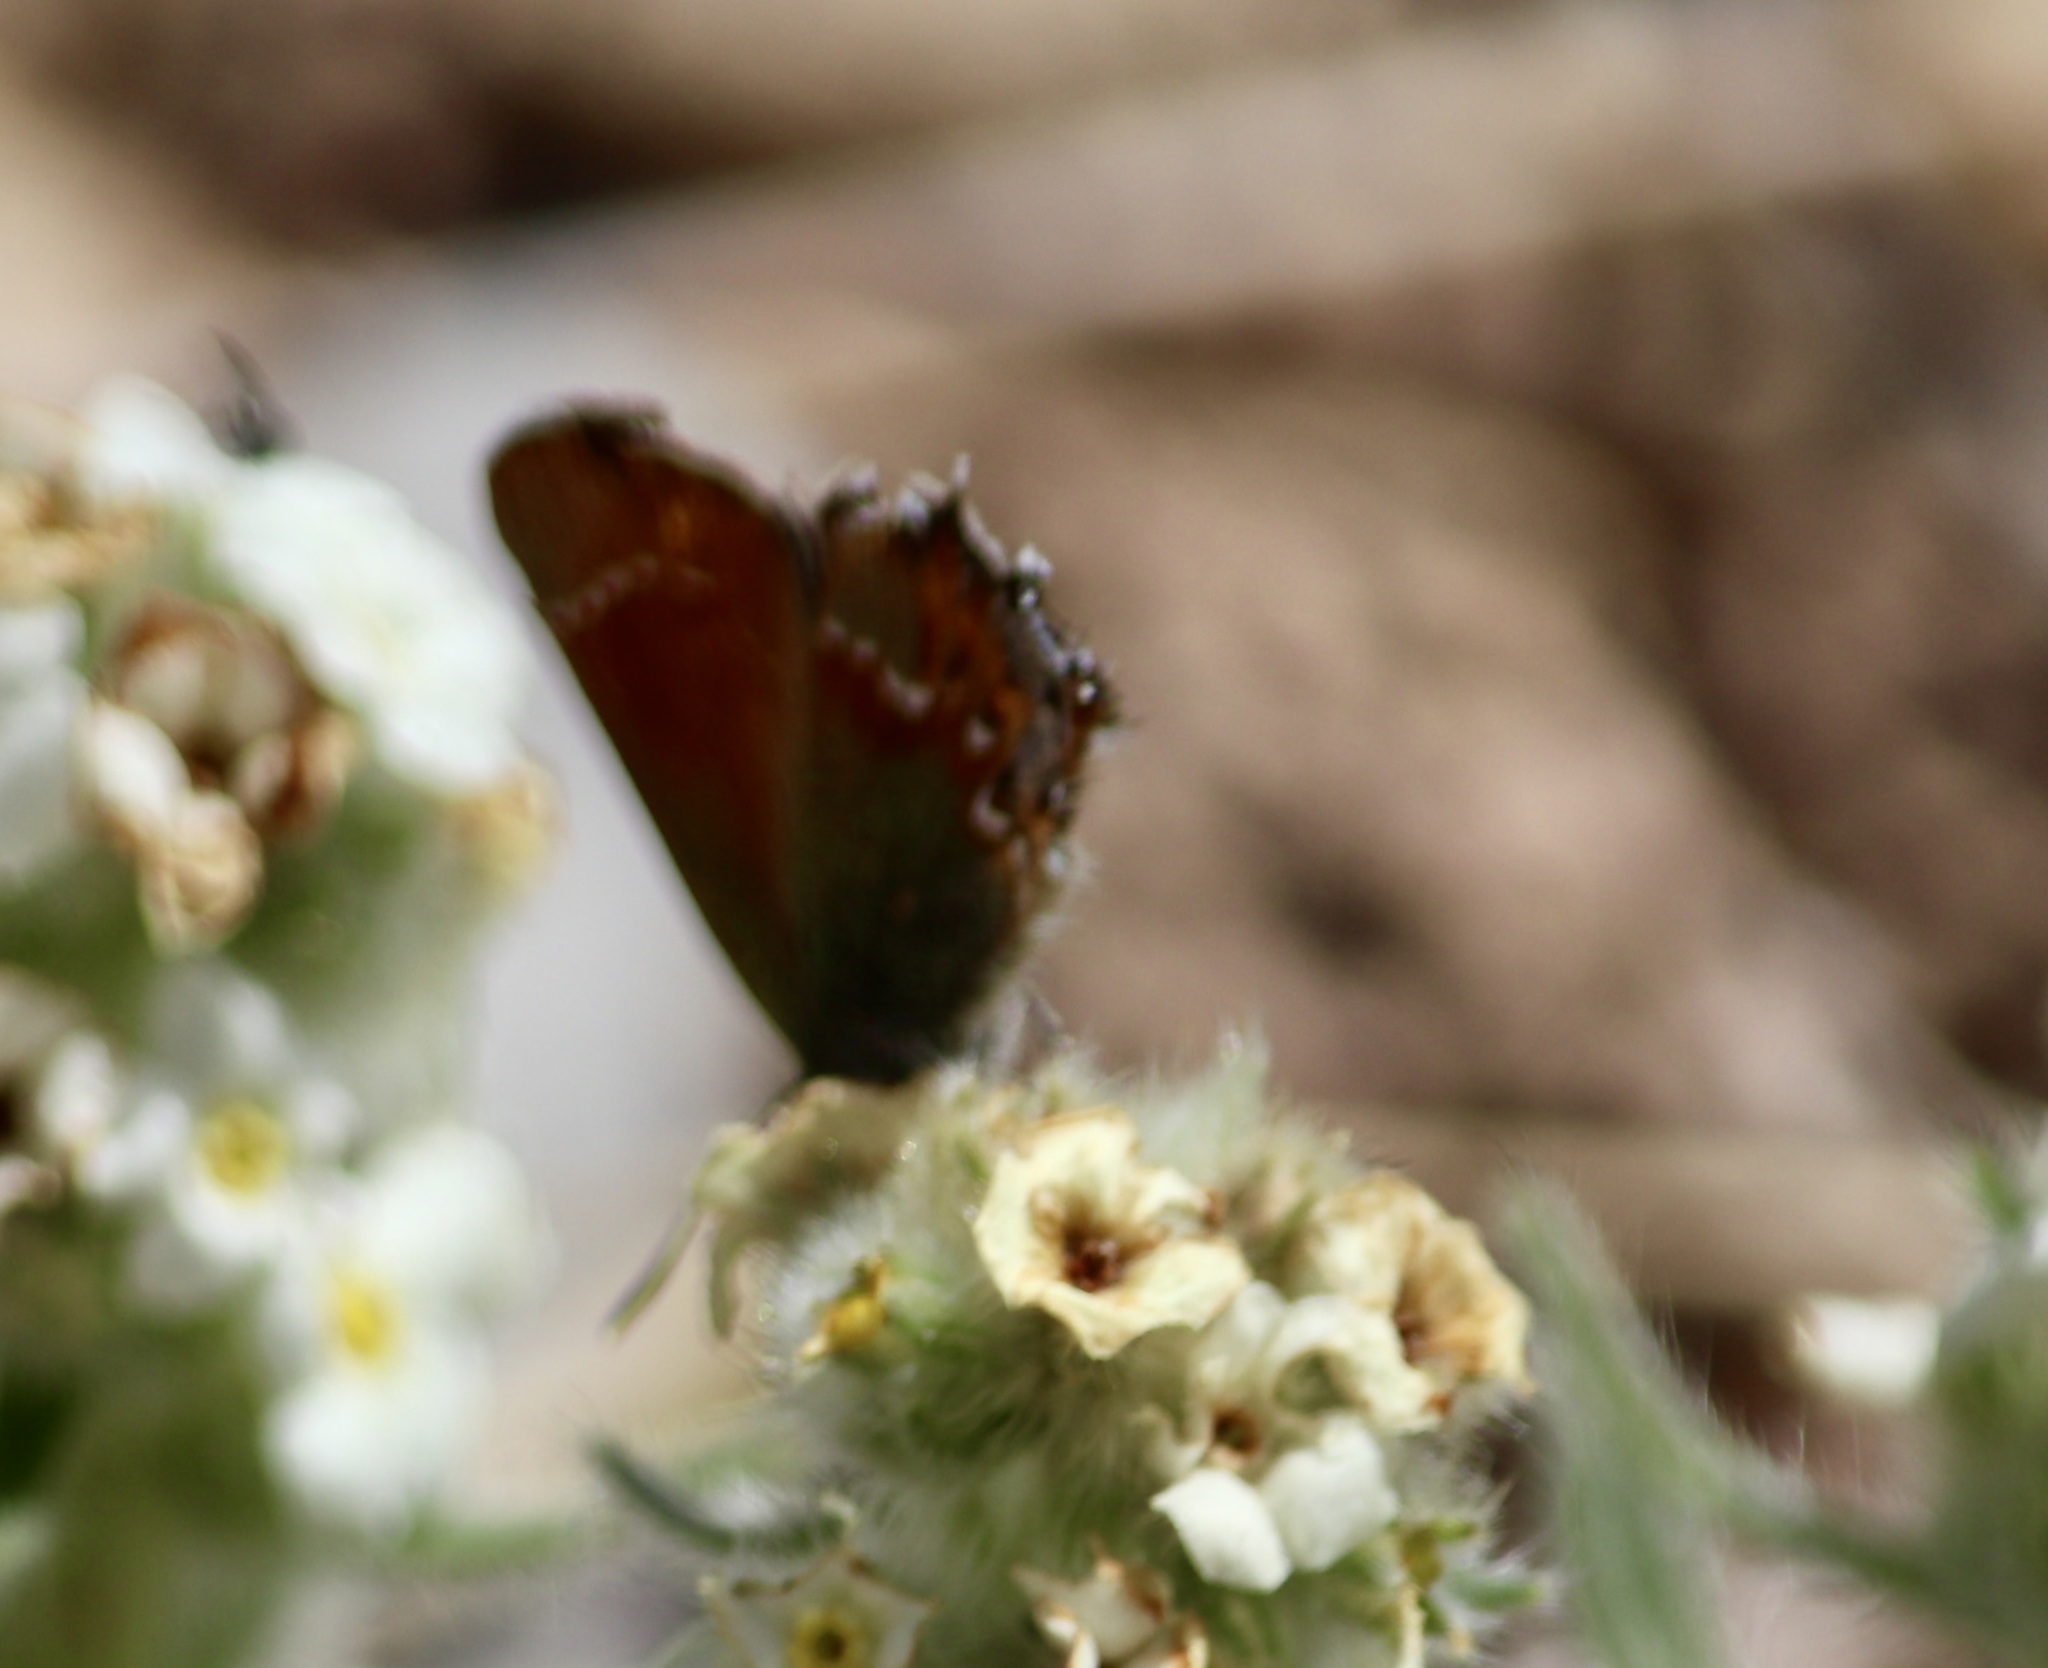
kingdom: Animalia
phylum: Arthropoda
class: Insecta
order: Lepidoptera
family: Lycaenidae
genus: Mitoura
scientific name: Mitoura gryneus
